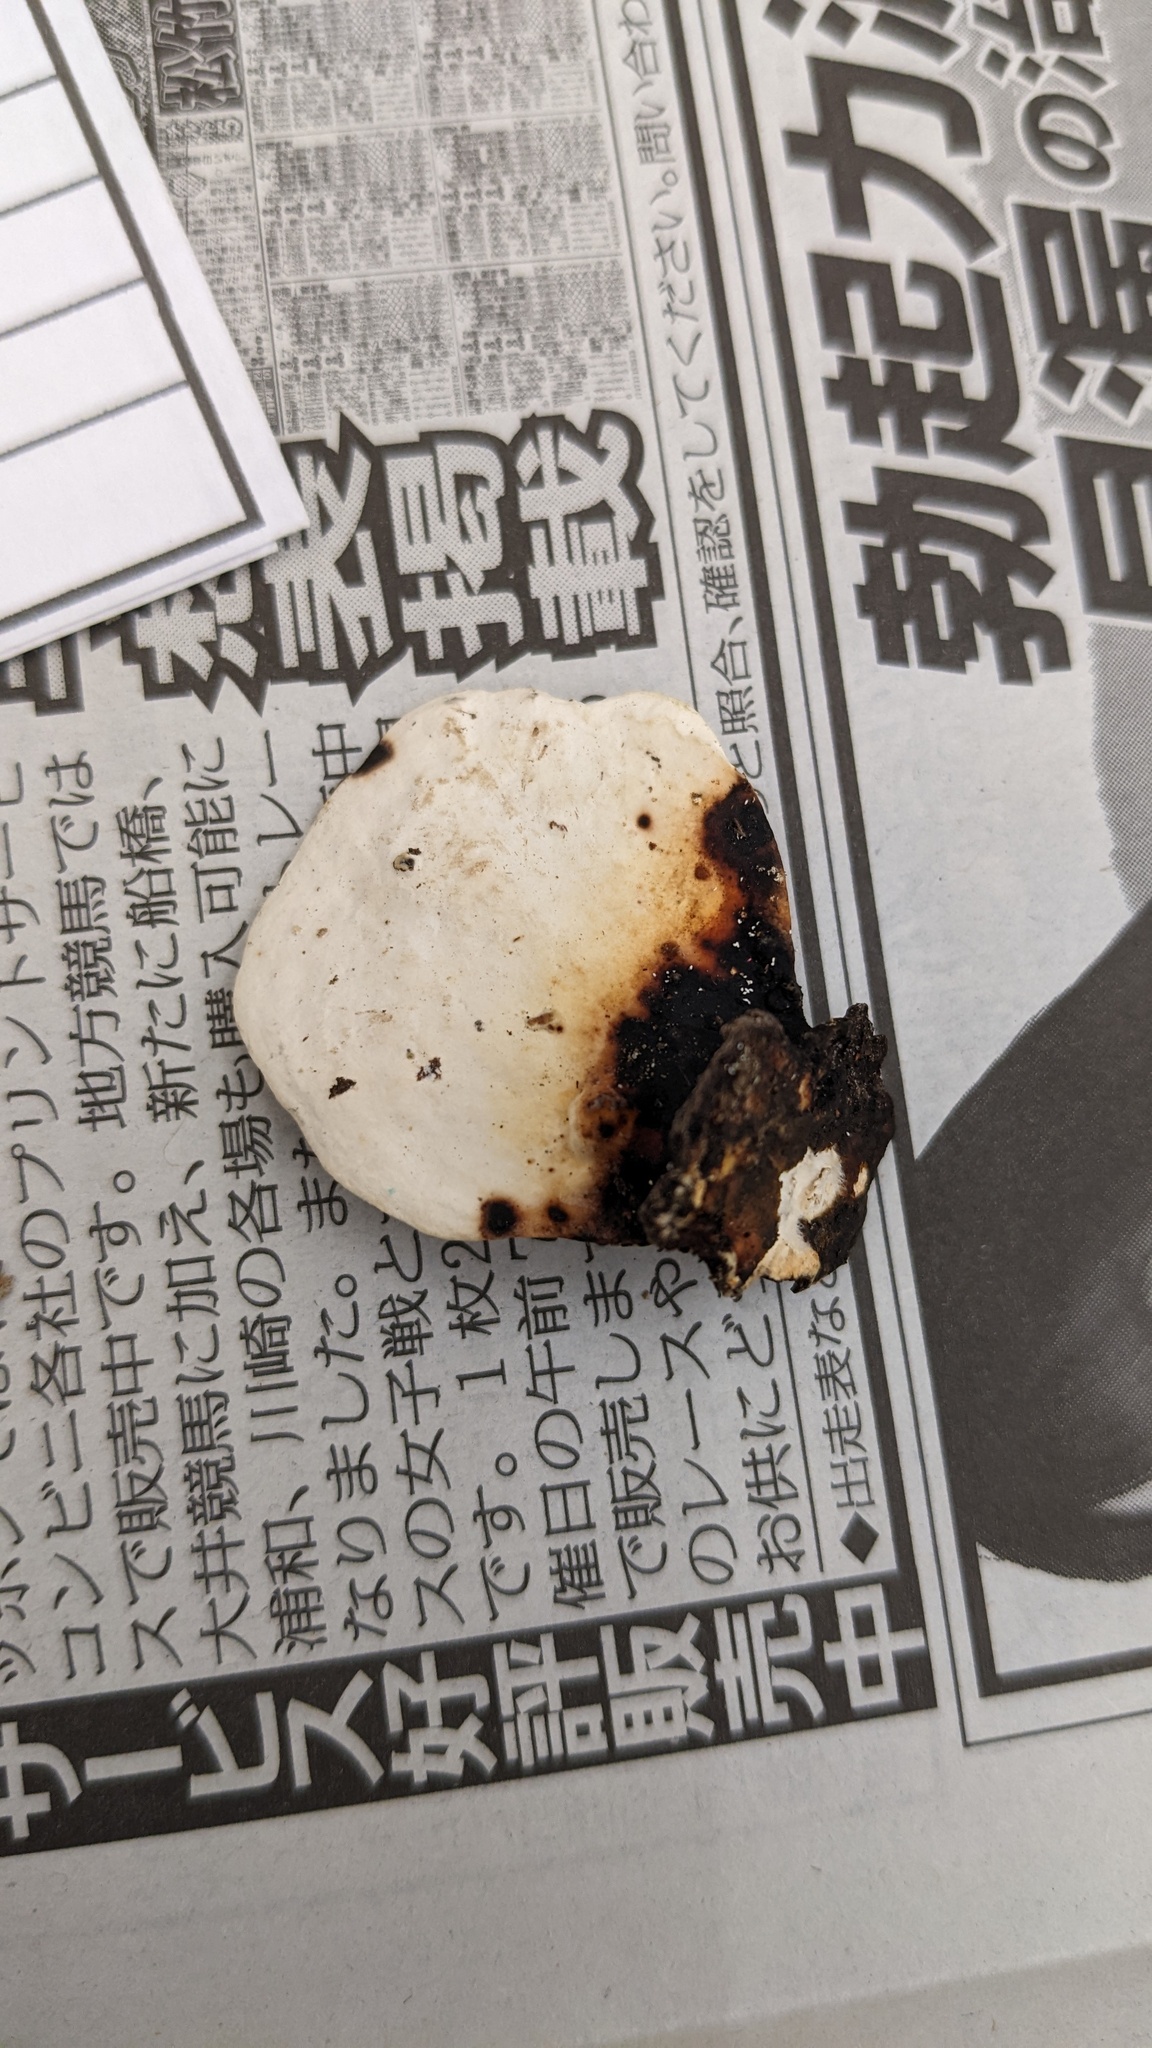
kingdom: Fungi
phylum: Basidiomycota
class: Agaricomycetes
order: Polyporales
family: Polyporaceae
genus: Trametes
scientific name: Trametes elegans
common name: White maze polypore
